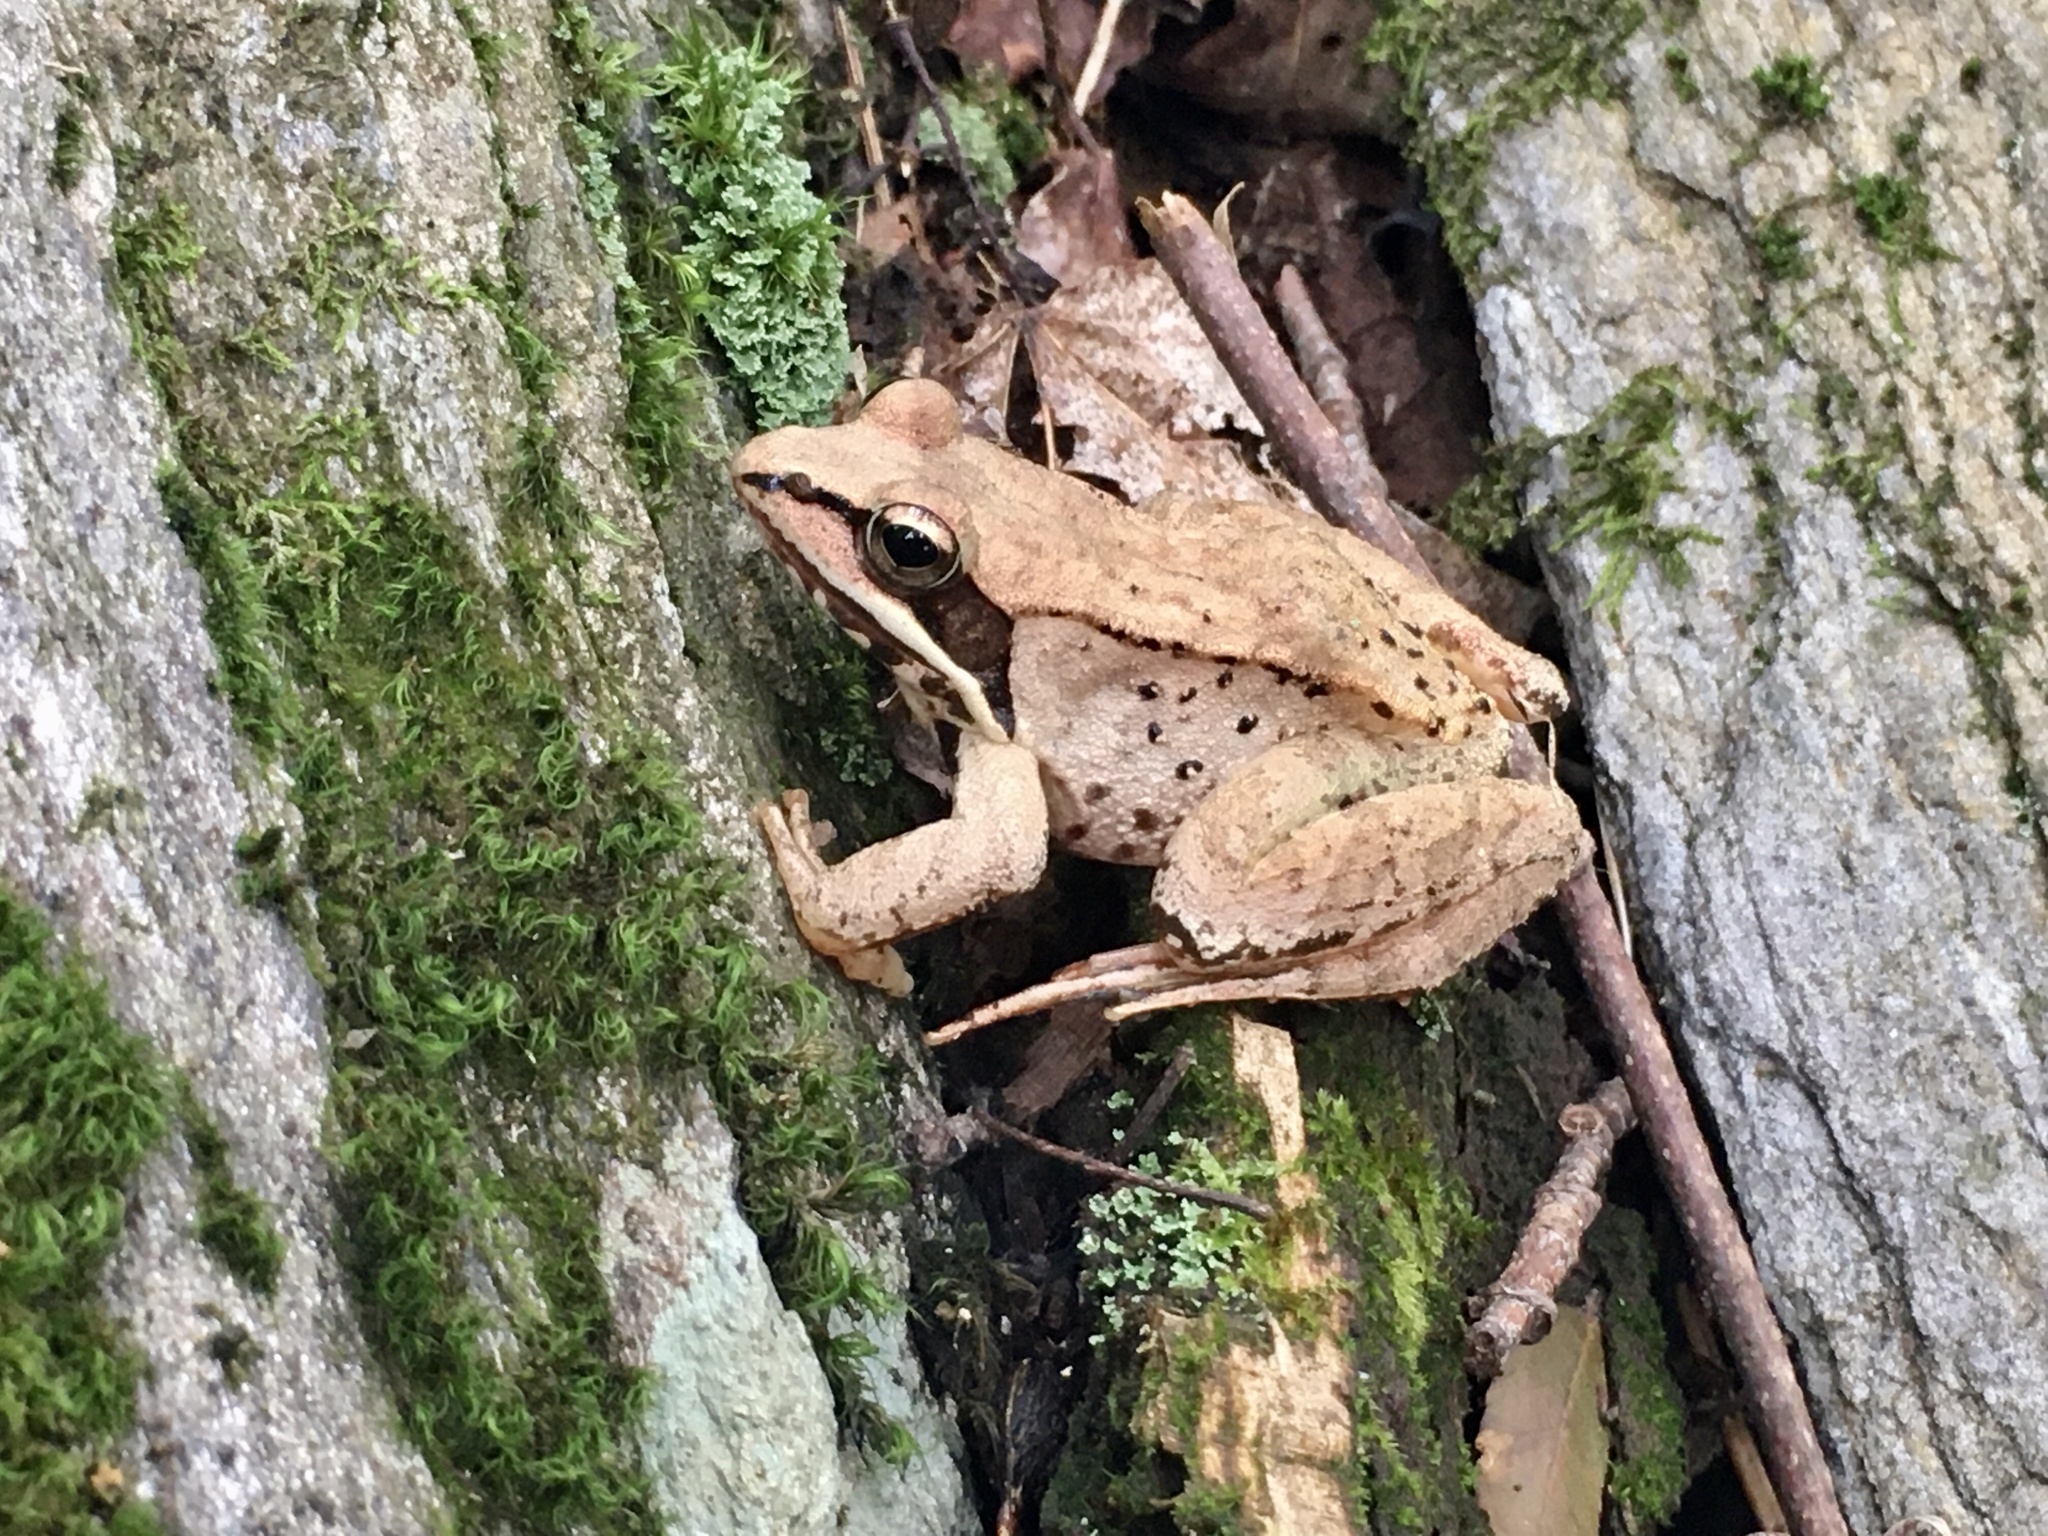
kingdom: Animalia
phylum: Chordata
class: Amphibia
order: Anura
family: Ranidae
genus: Lithobates
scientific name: Lithobates sylvaticus
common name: Wood frog
